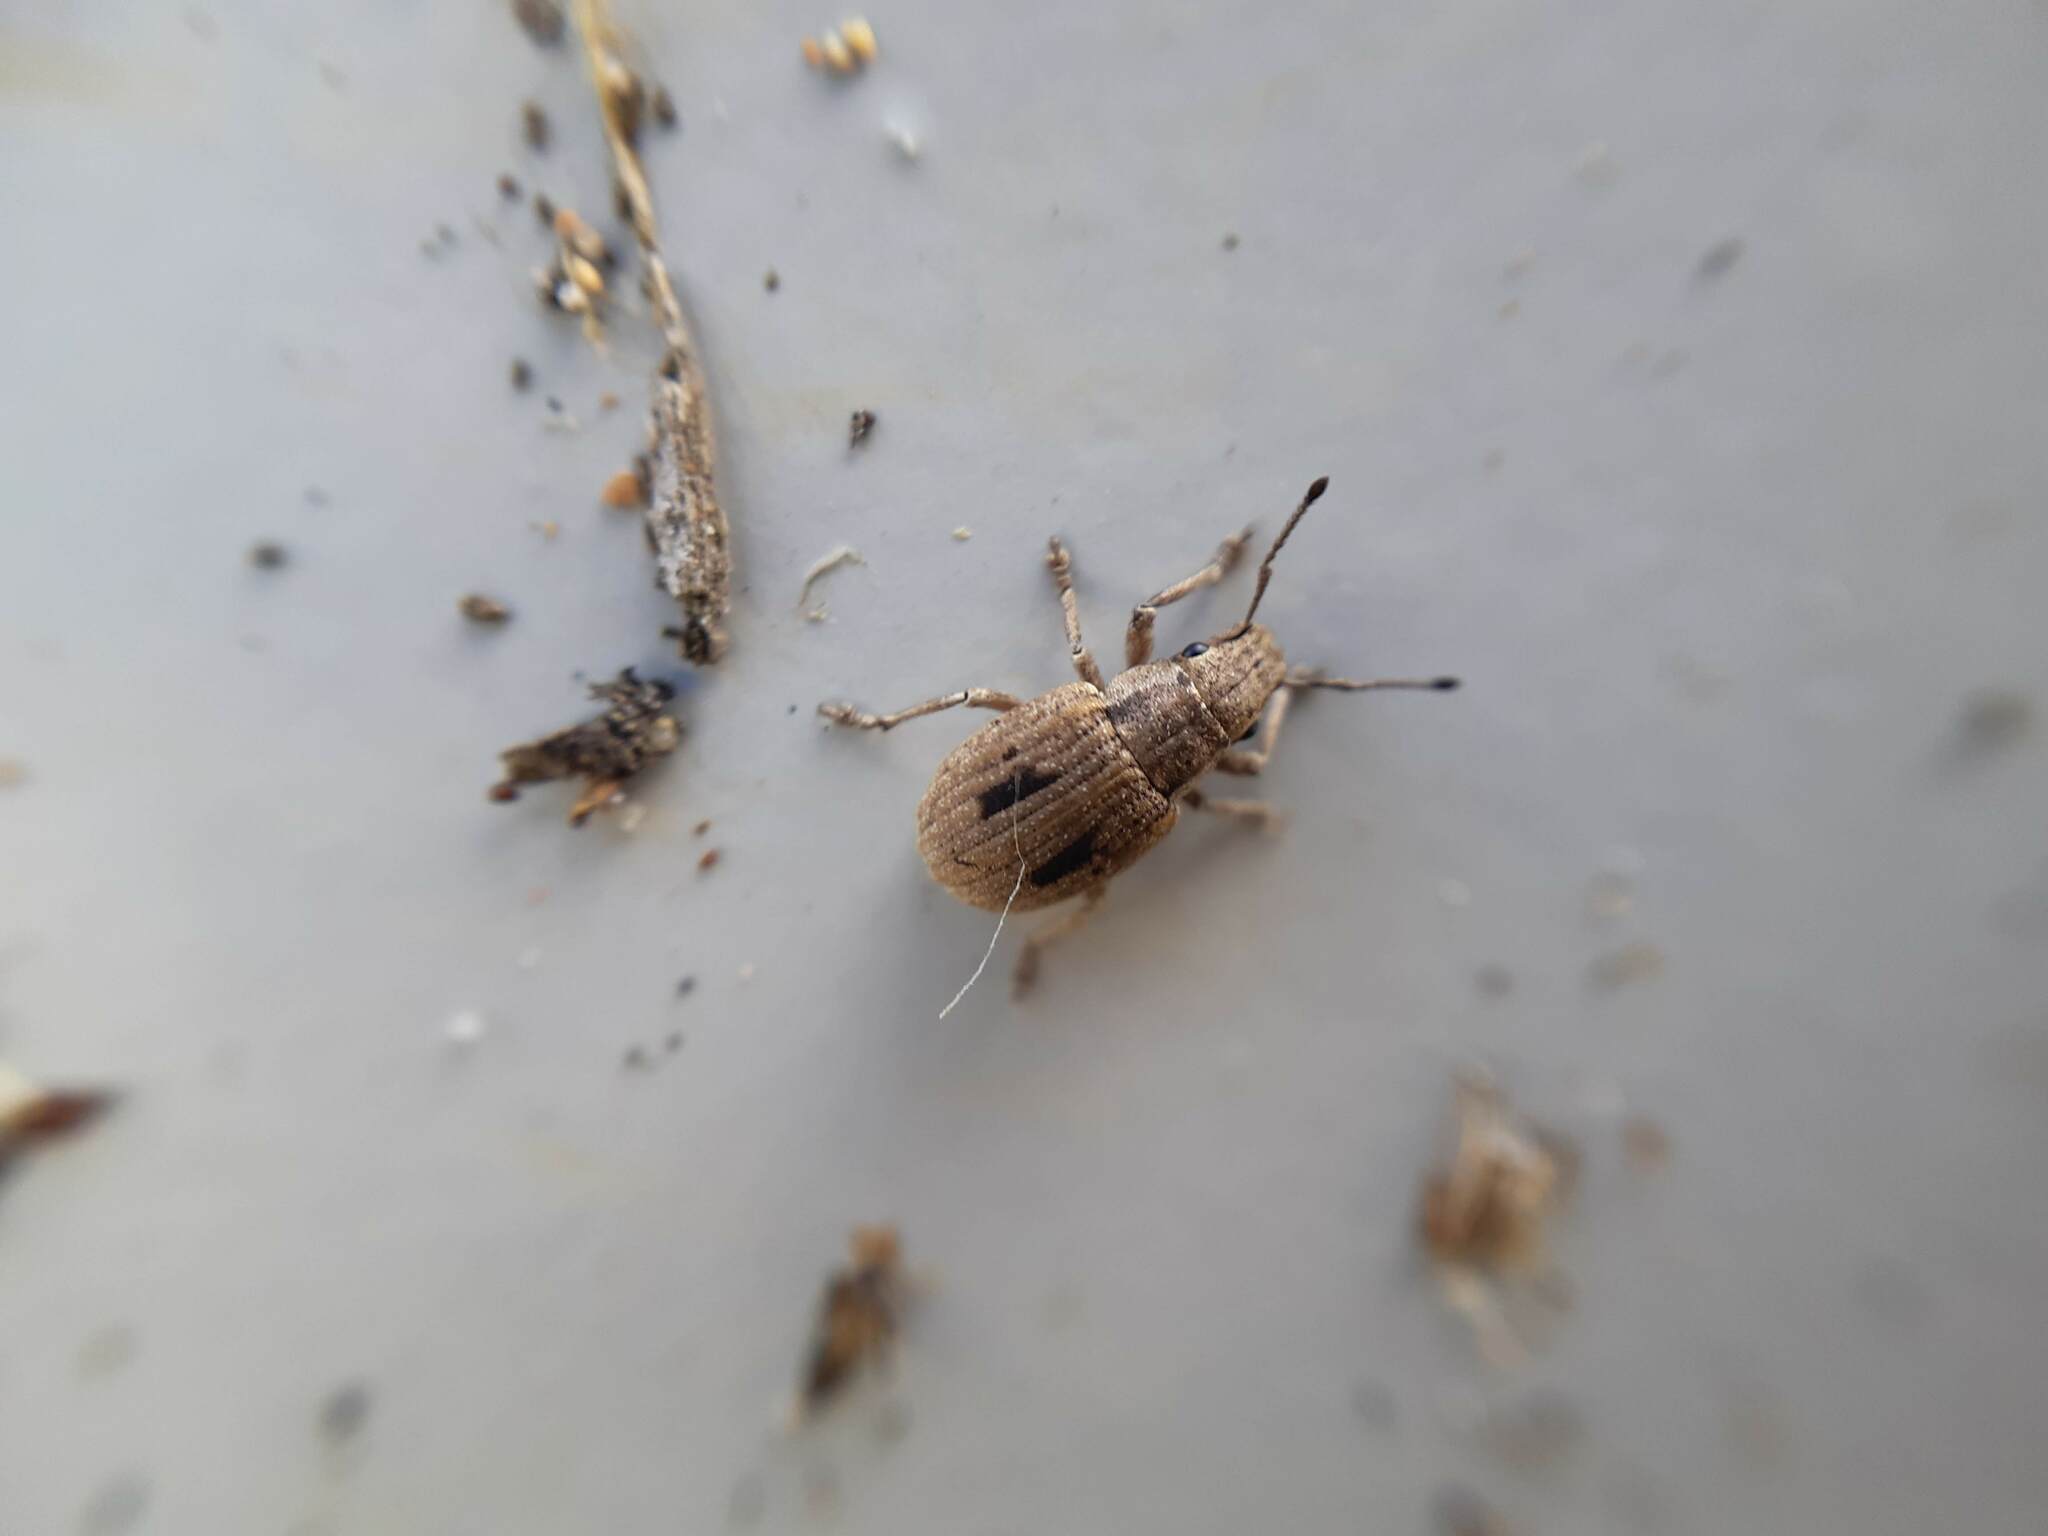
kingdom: Animalia
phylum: Arthropoda
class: Insecta
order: Coleoptera
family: Curculionidae
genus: Eurymetopus
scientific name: Eurymetopus birabeni
